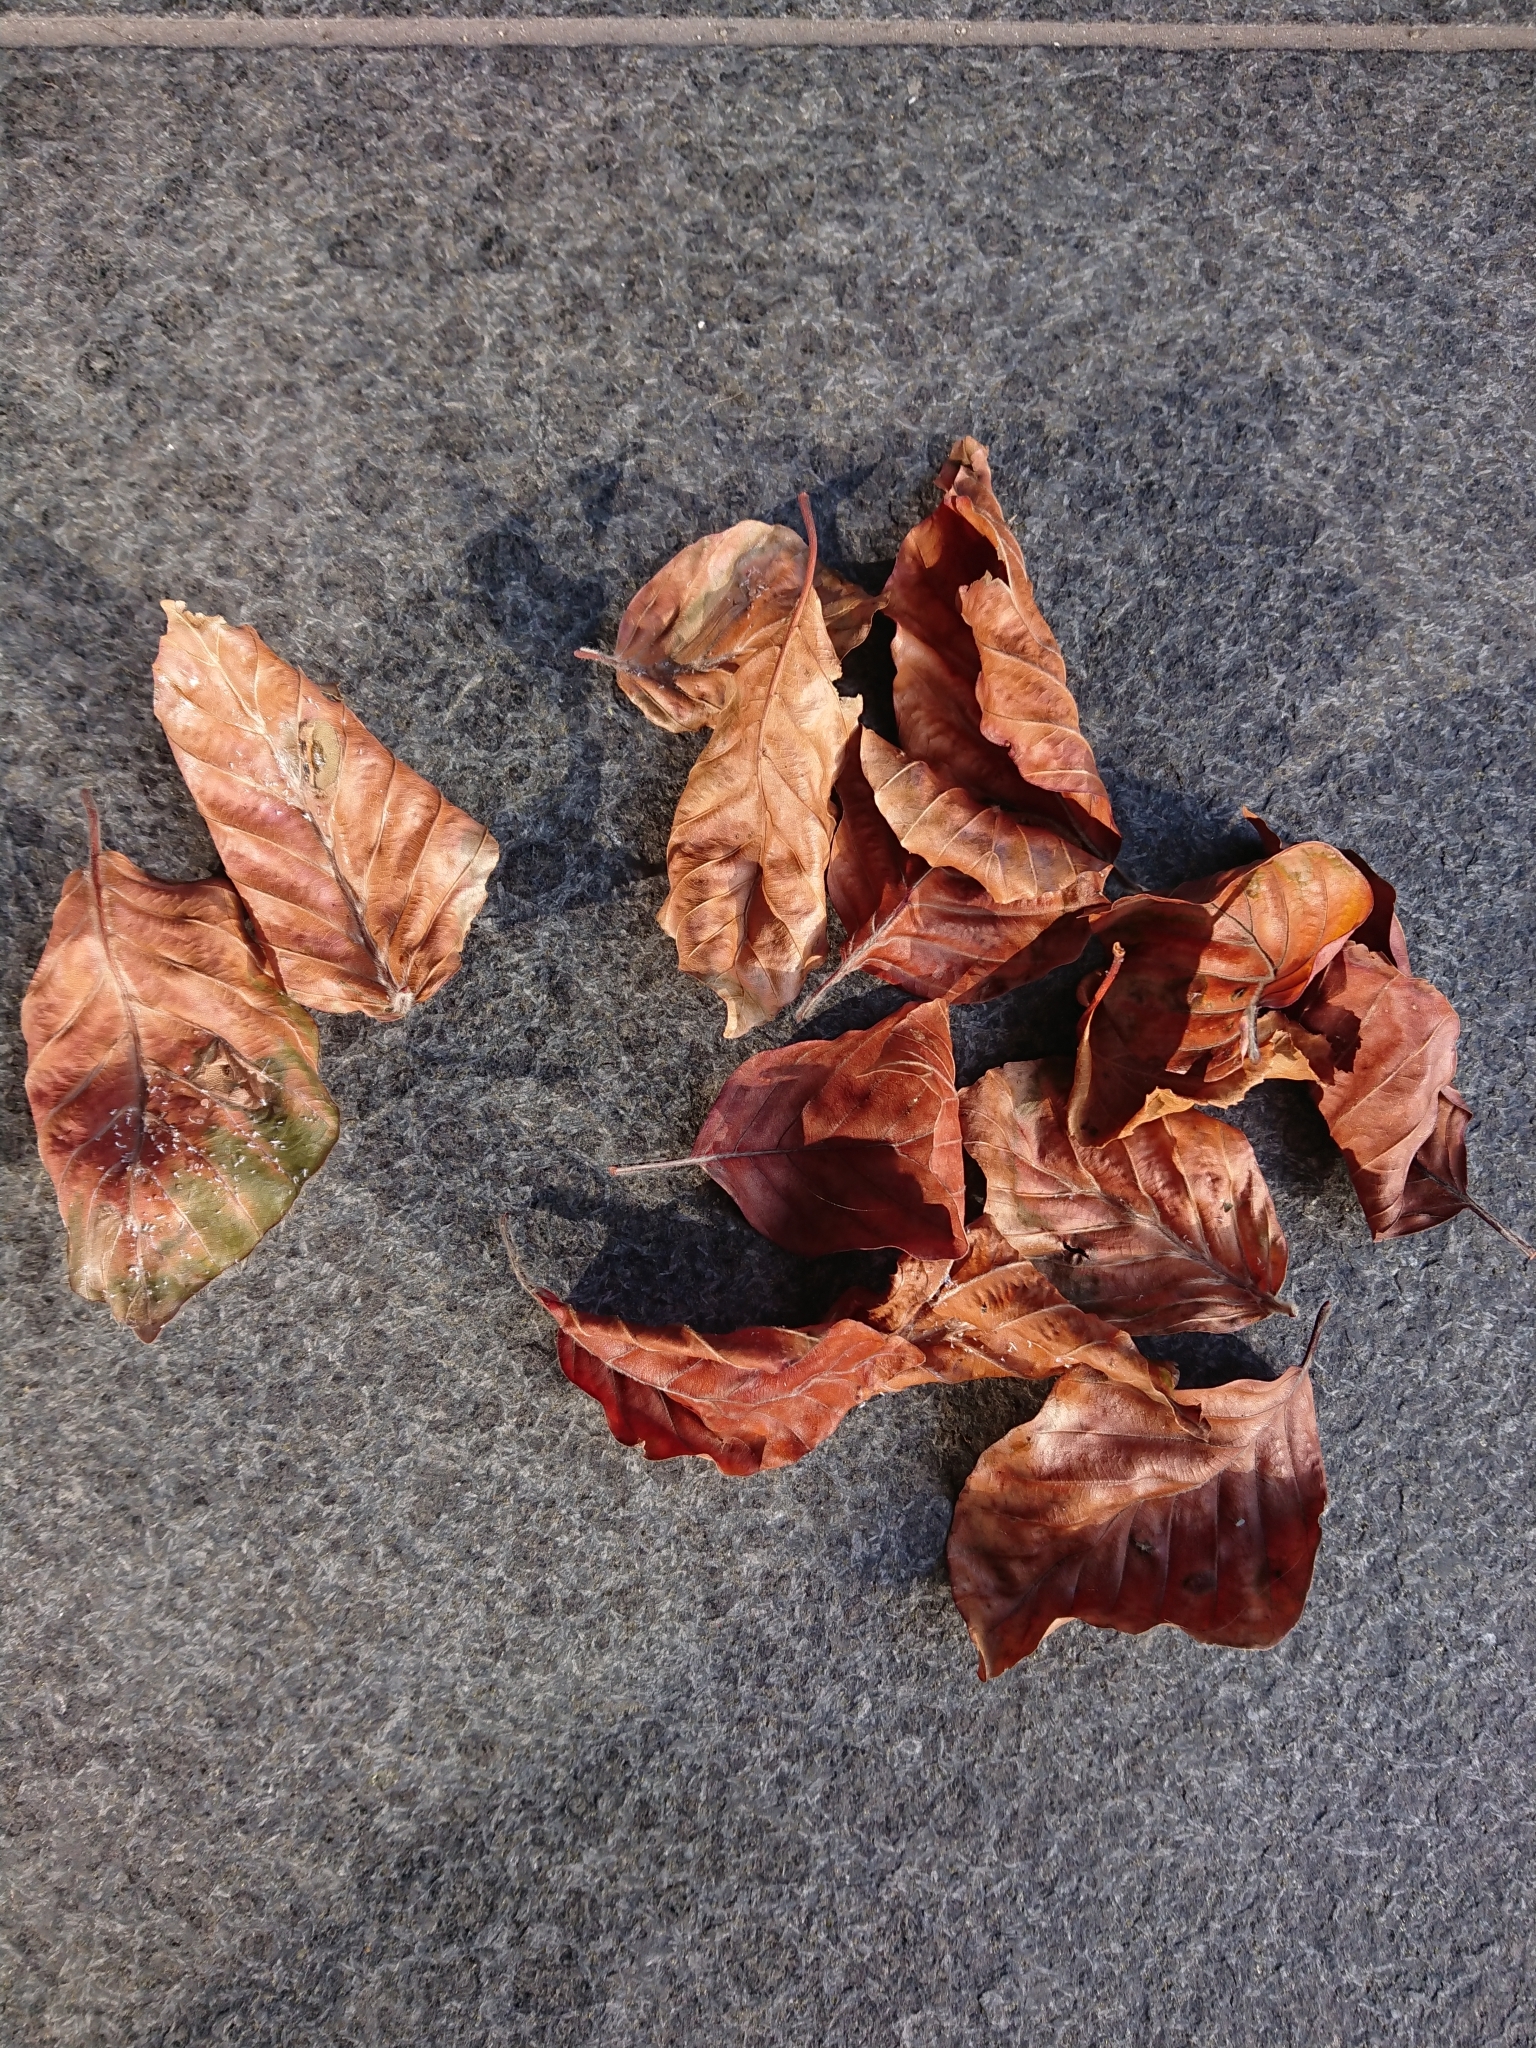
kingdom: Animalia
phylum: Arthropoda
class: Insecta
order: Lepidoptera
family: Gracillariidae
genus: Phyllonorycter
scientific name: Phyllonorycter messaniella
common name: Garden midget
